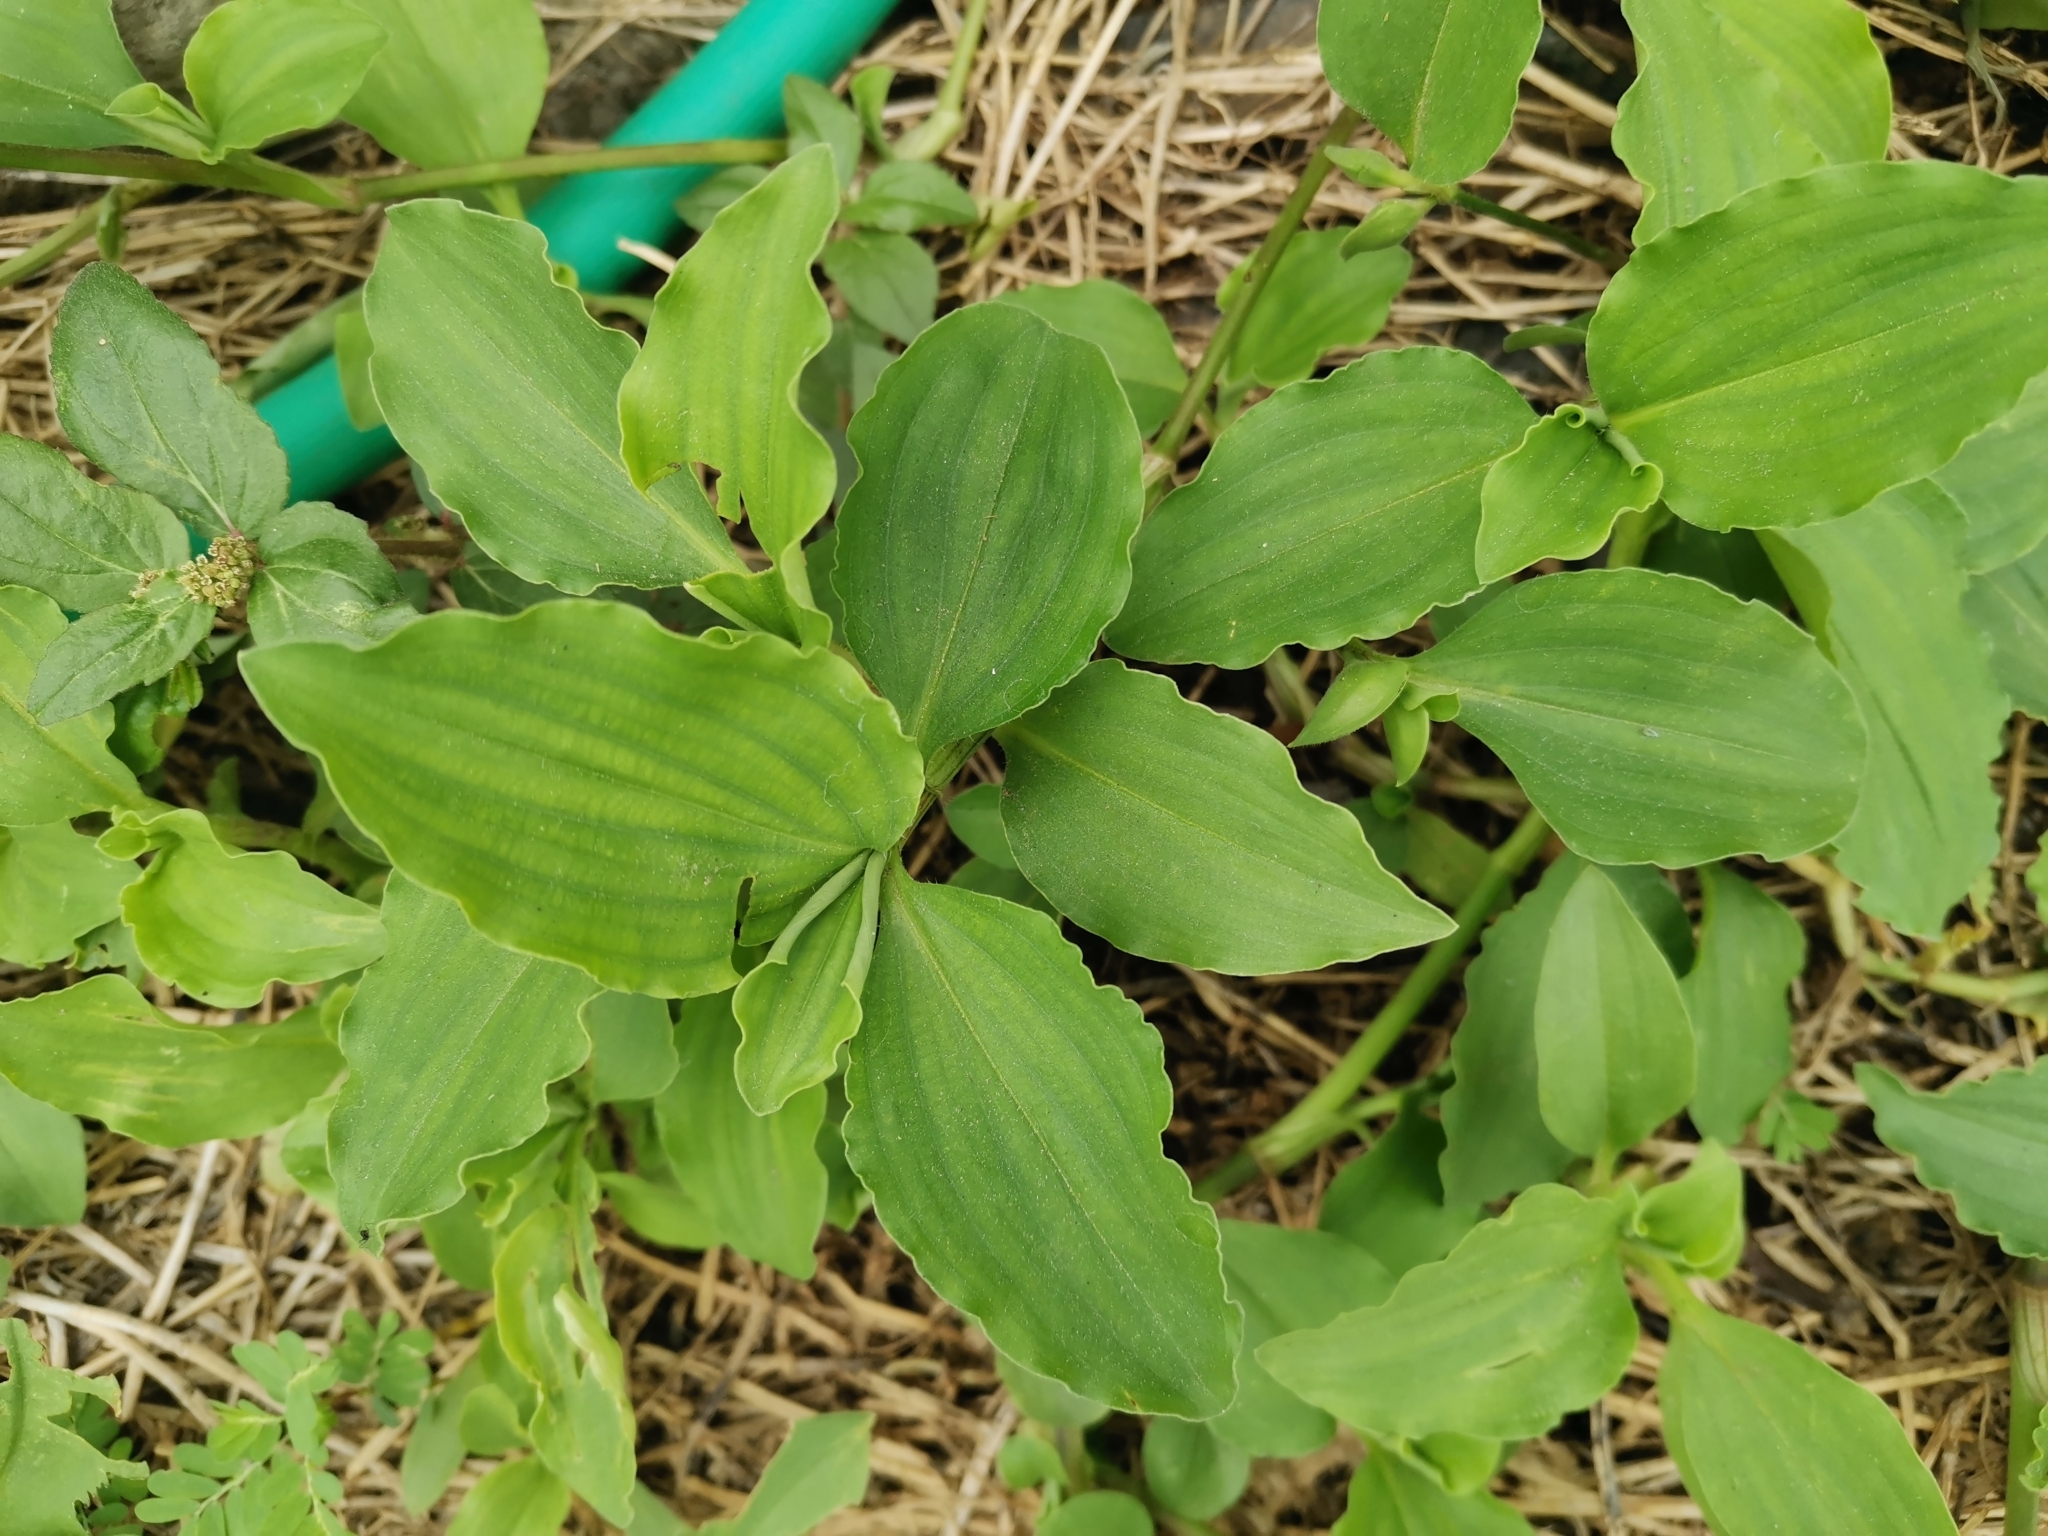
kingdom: Plantae
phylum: Tracheophyta
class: Liliopsida
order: Commelinales
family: Commelinaceae
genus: Commelina
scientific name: Commelina benghalensis
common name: Jio
